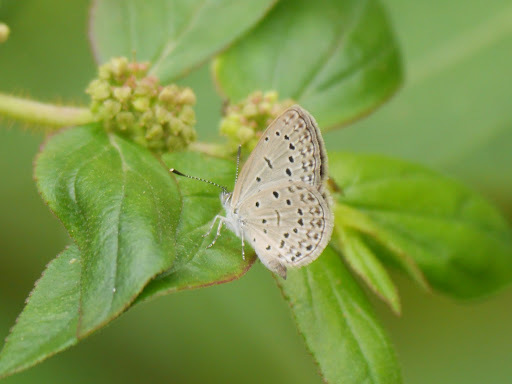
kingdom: Animalia
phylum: Arthropoda
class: Insecta
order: Lepidoptera
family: Lycaenidae
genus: Zizeeria
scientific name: Zizeeria knysna
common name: African grass blue
